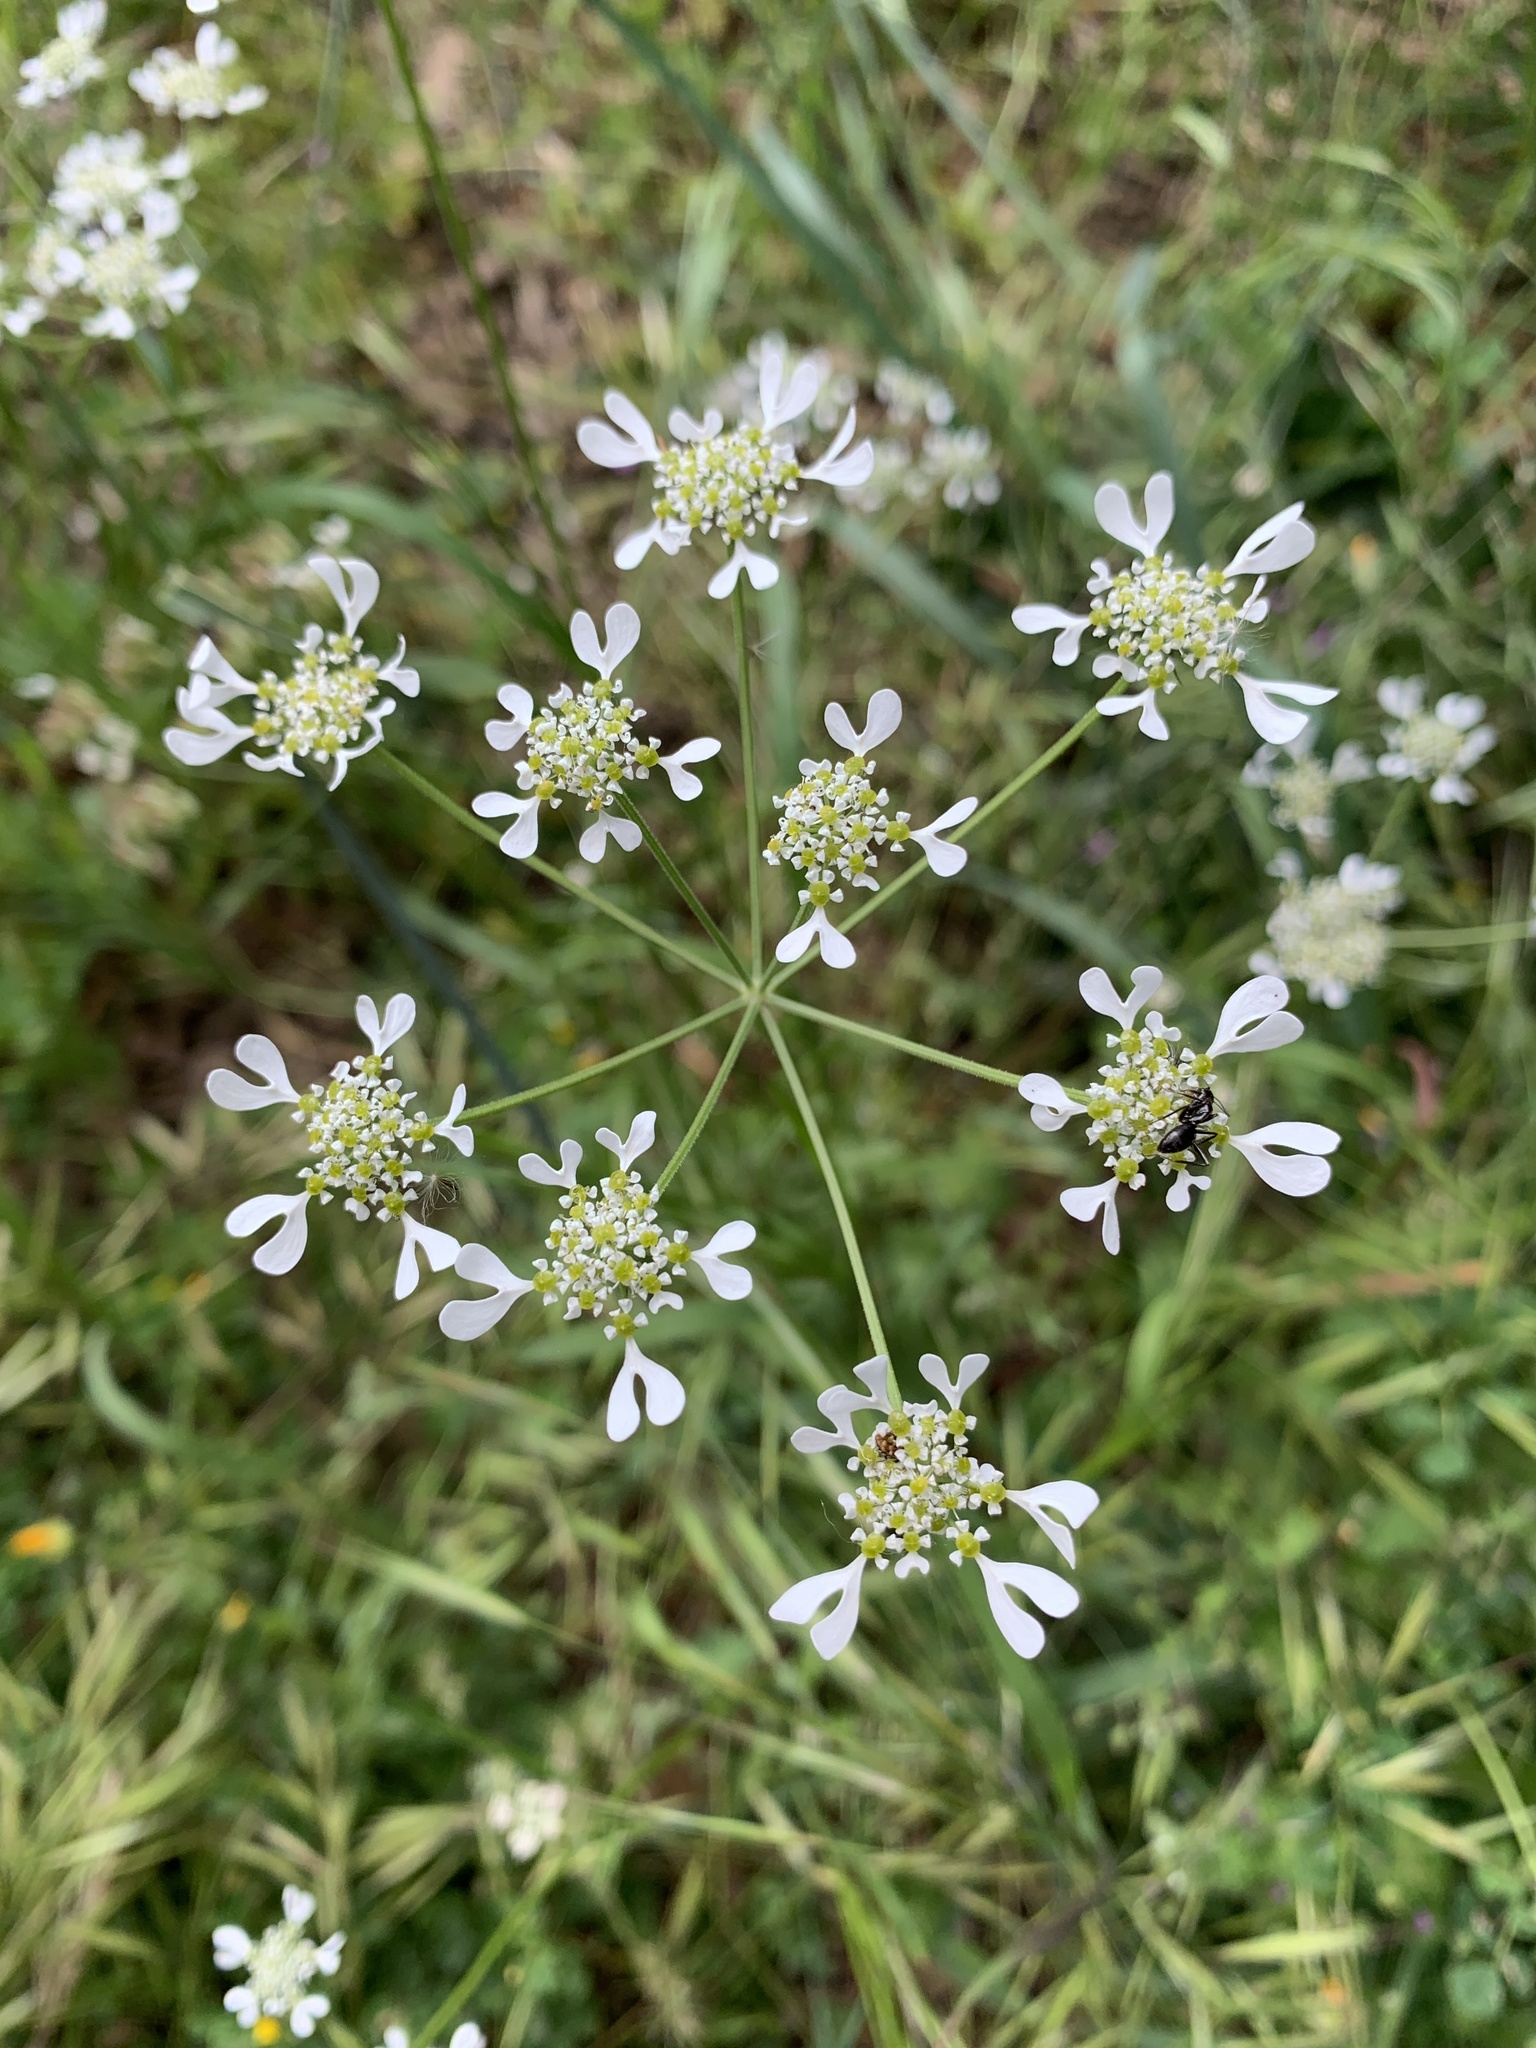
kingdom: Plantae
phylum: Tracheophyta
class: Magnoliopsida
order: Apiales
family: Apiaceae
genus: Tordylium
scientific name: Tordylium apulum
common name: Mediterranean hartwort
